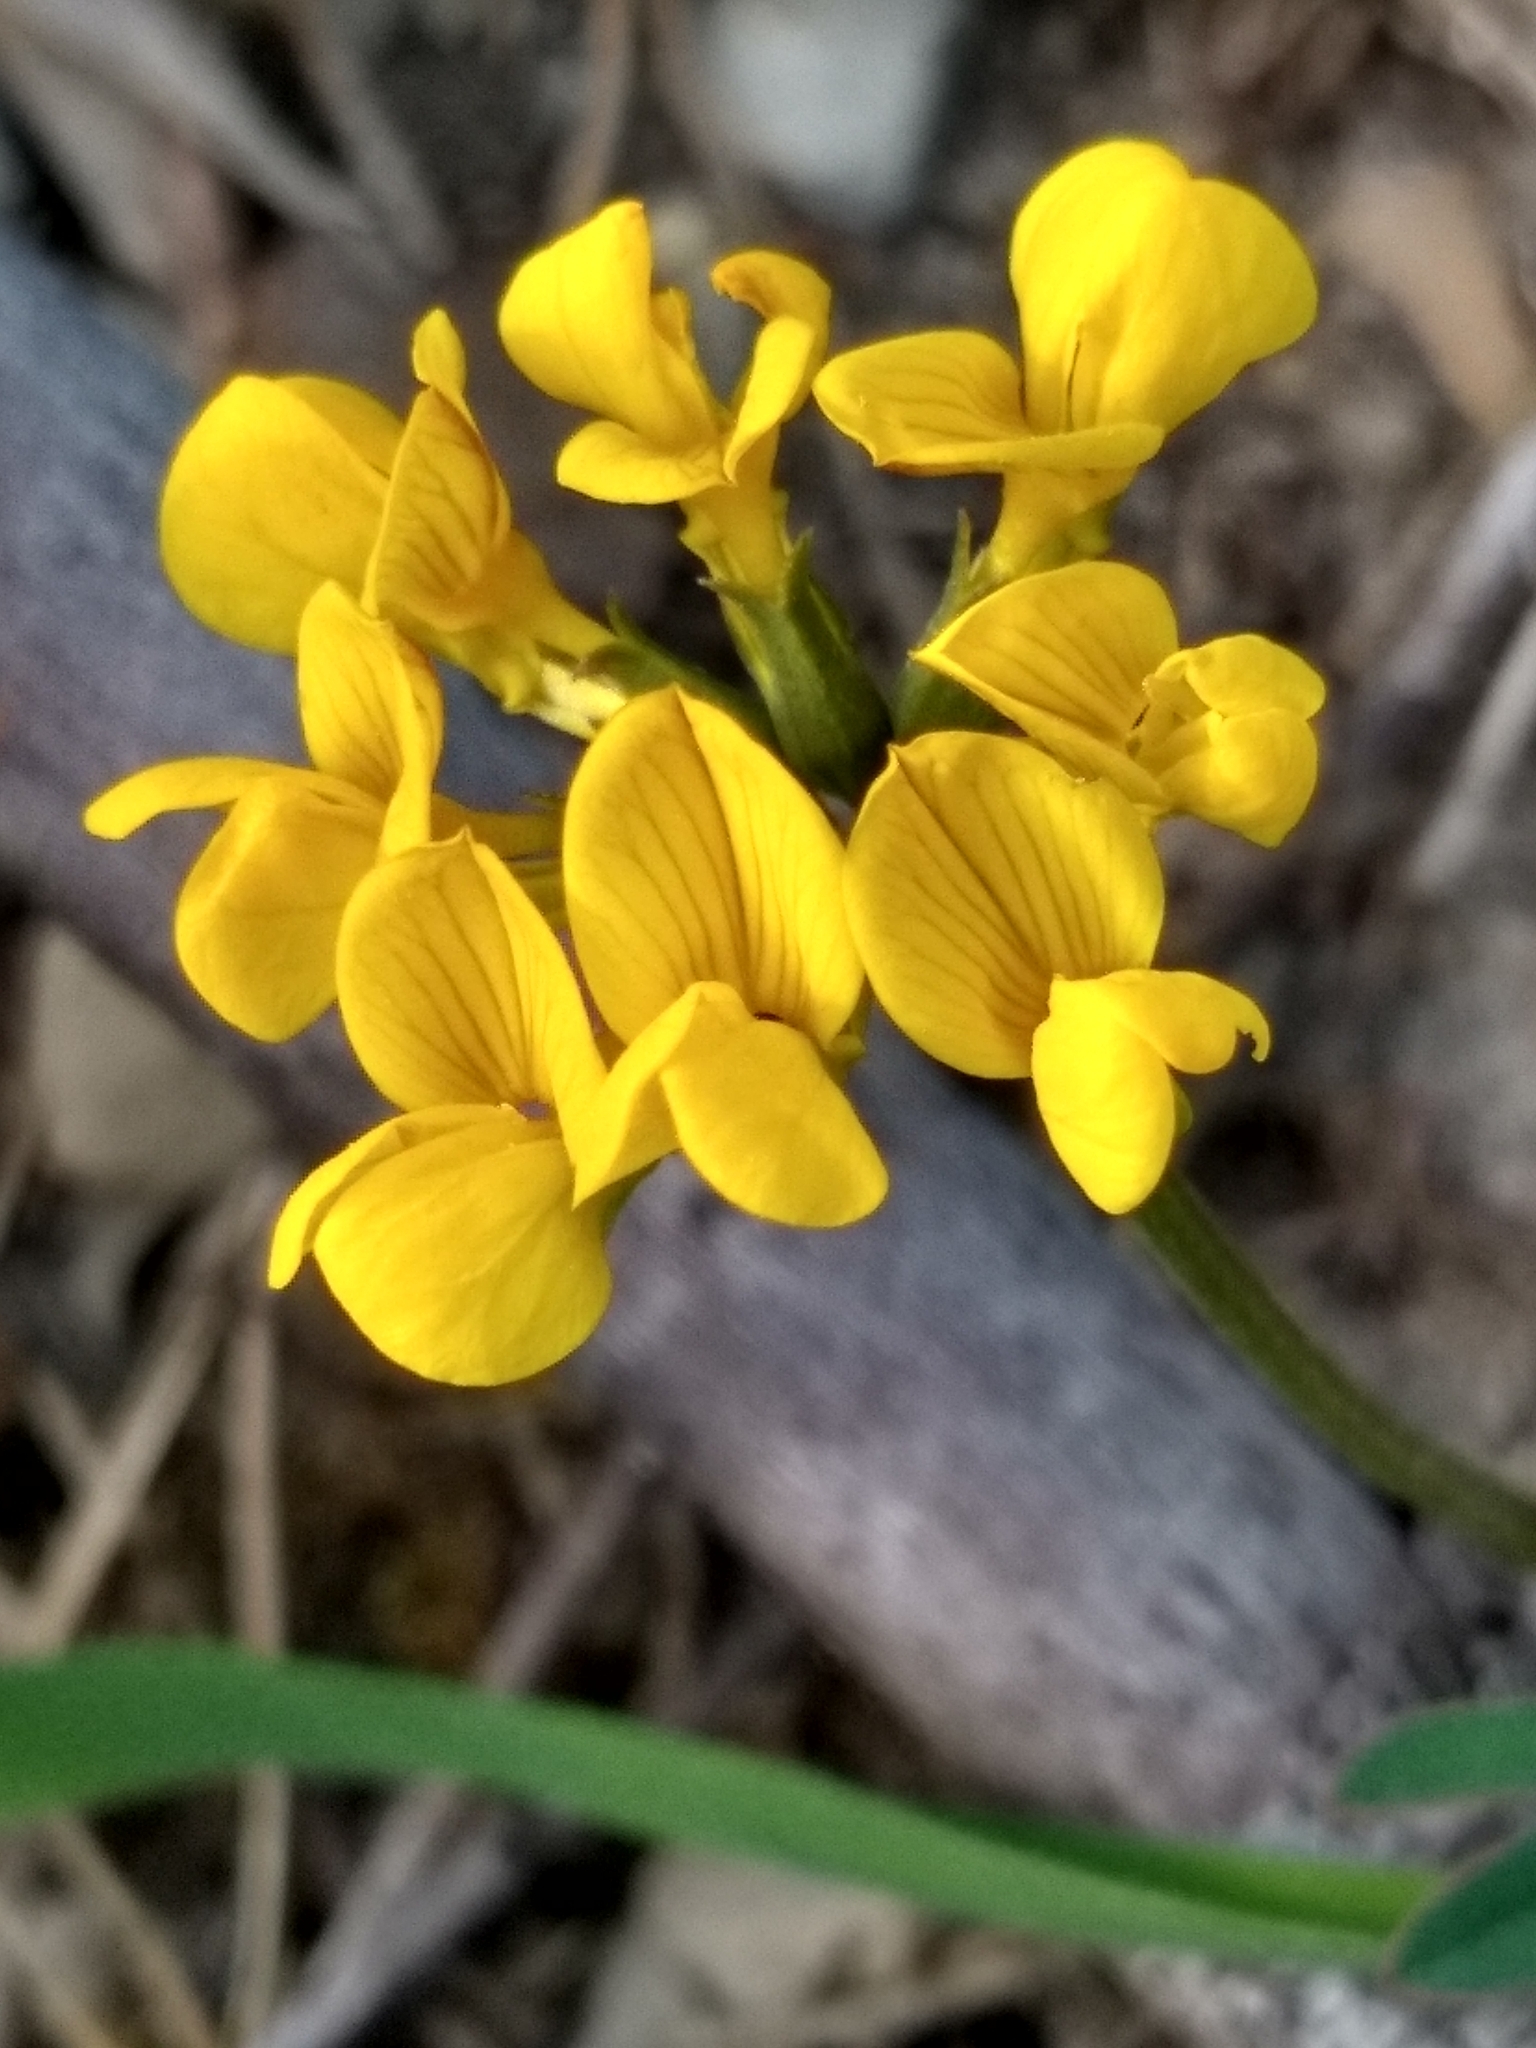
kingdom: Plantae
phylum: Tracheophyta
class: Magnoliopsida
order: Fabales
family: Fabaceae
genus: Hippocrepis
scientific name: Hippocrepis comosa
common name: Horseshoe vetch
